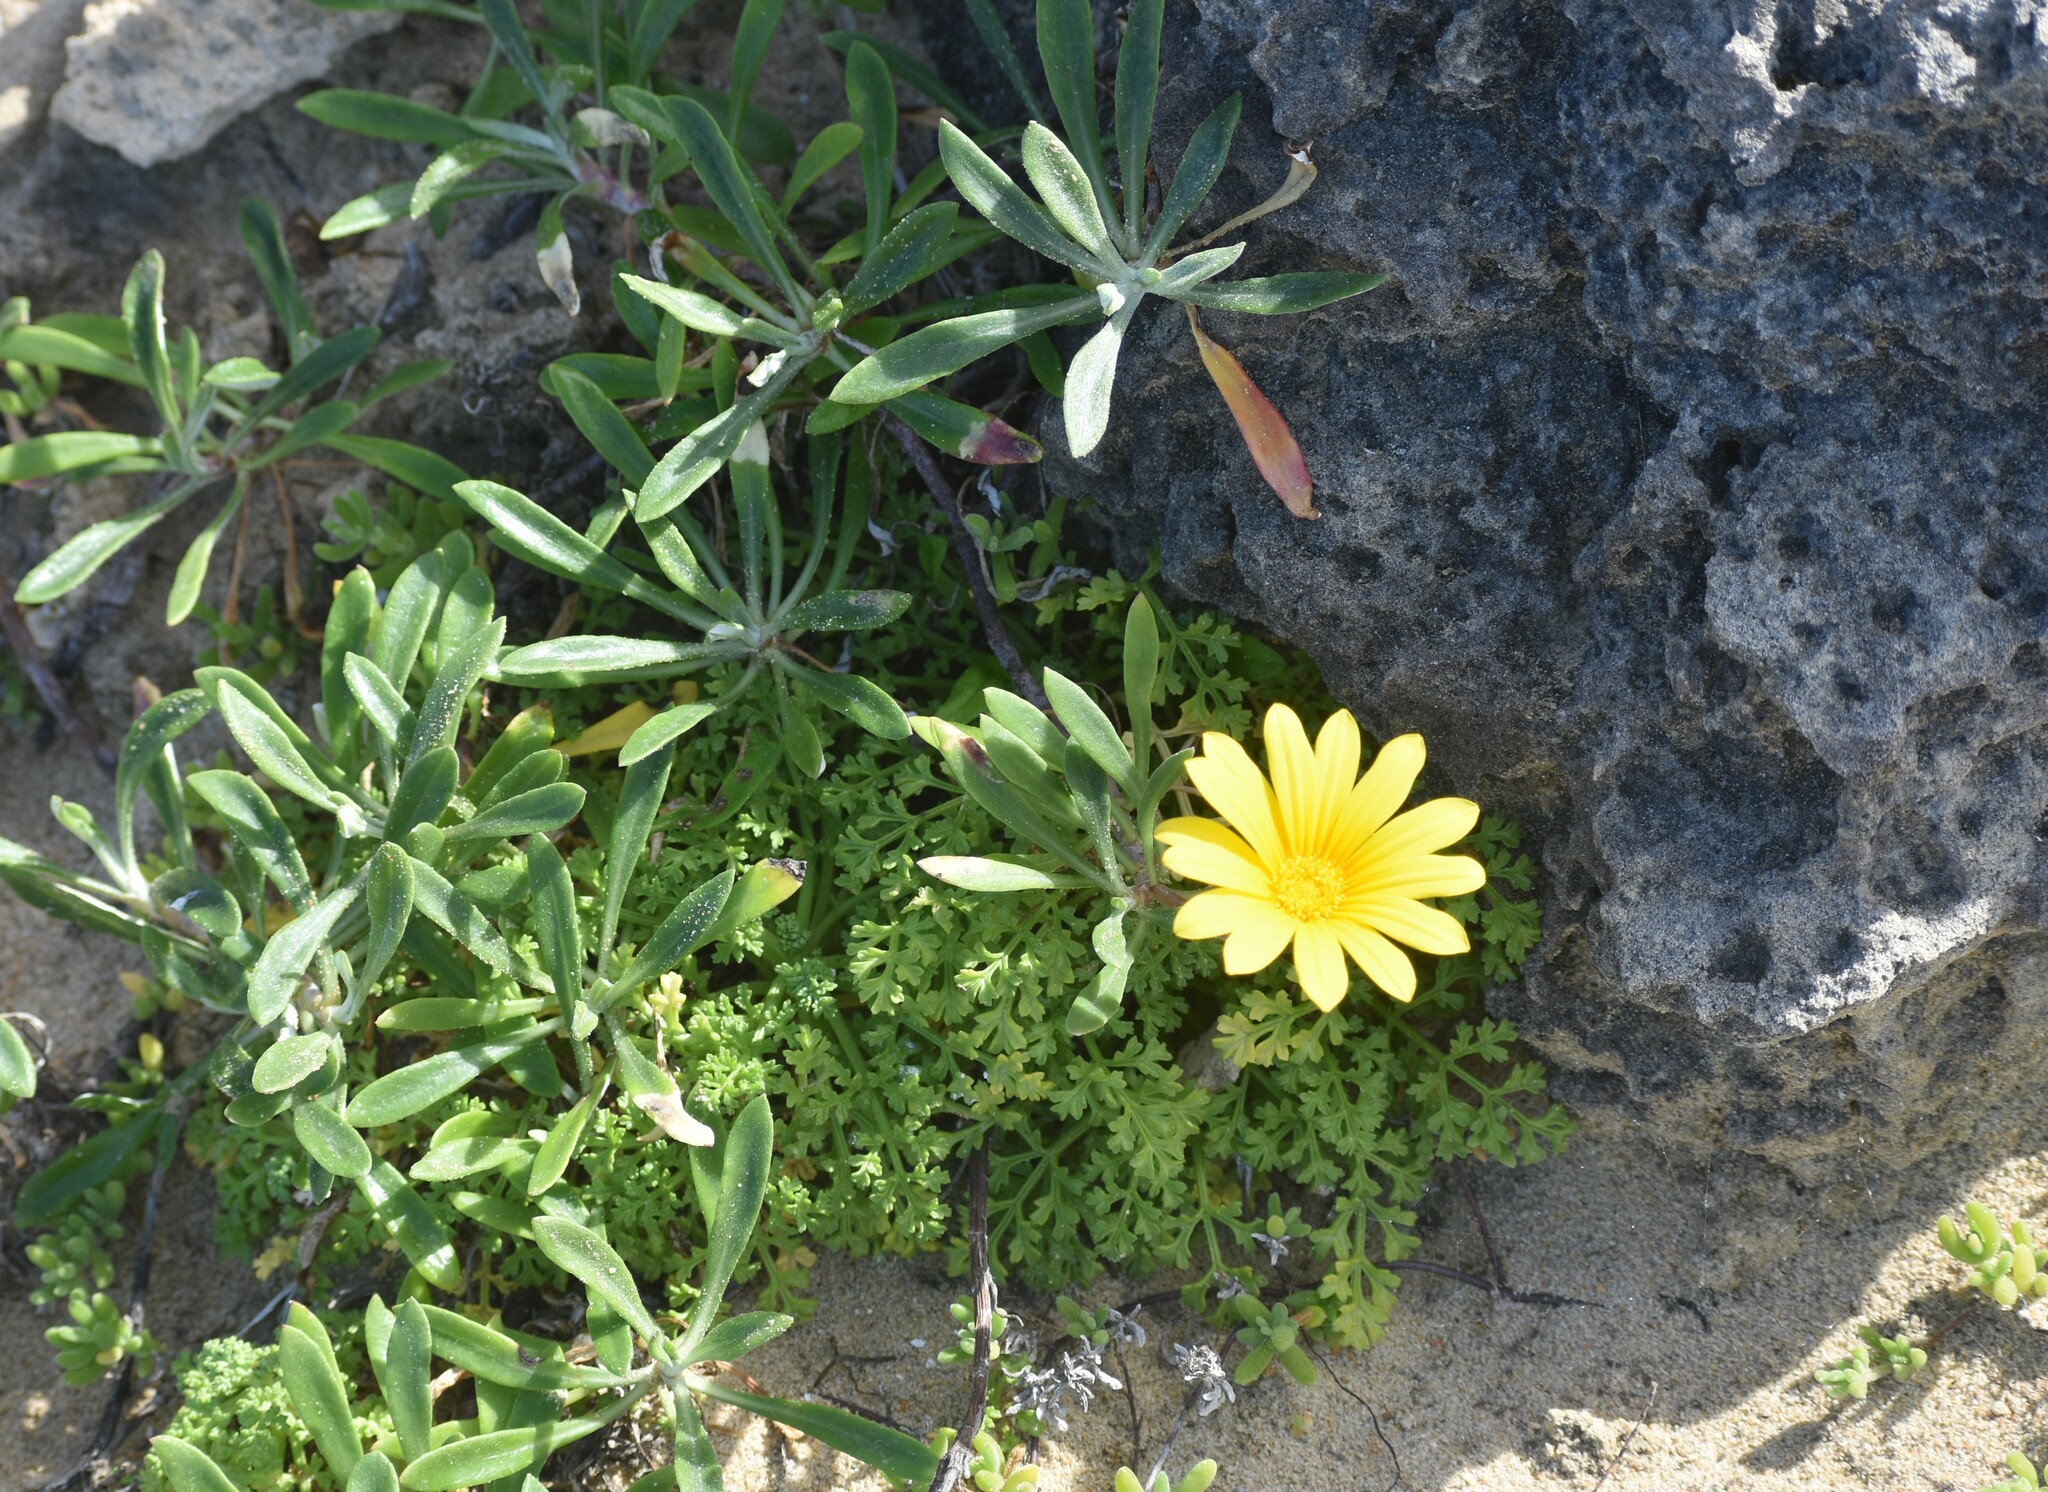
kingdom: Plantae
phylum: Tracheophyta
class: Magnoliopsida
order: Asterales
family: Asteraceae
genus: Gazania
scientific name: Gazania rigens
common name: Treasureflower
